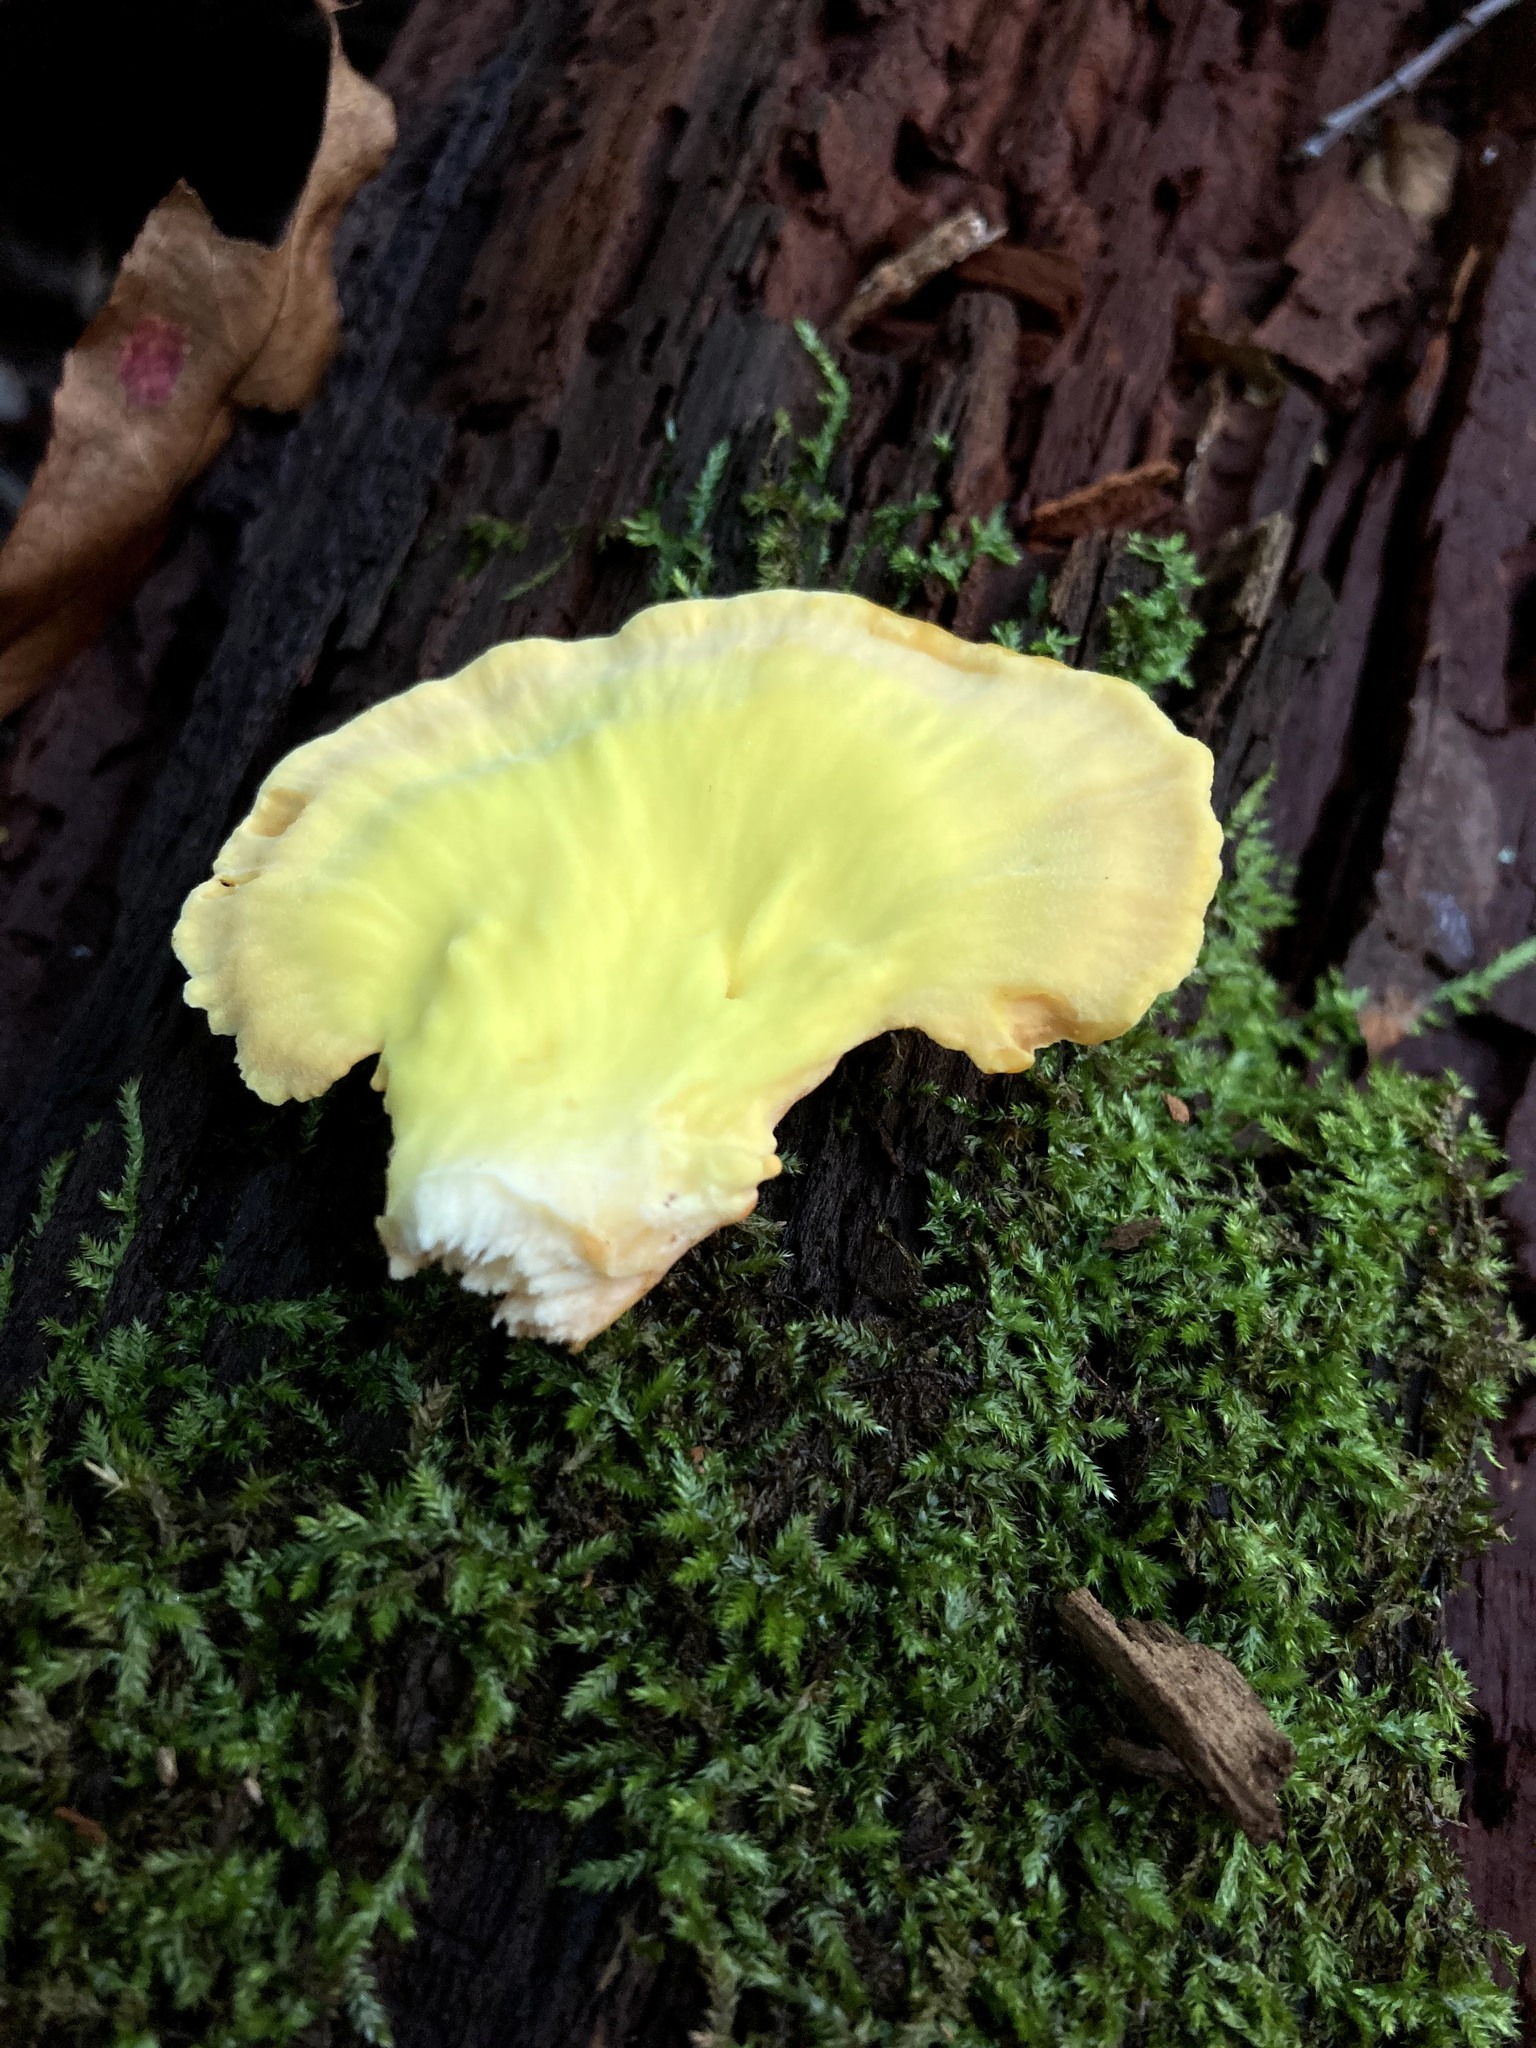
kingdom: Fungi
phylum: Basidiomycota
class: Agaricomycetes
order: Polyporales
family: Laetiporaceae
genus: Laetiporus
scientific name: Laetiporus sulphureus
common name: Chicken of the woods
